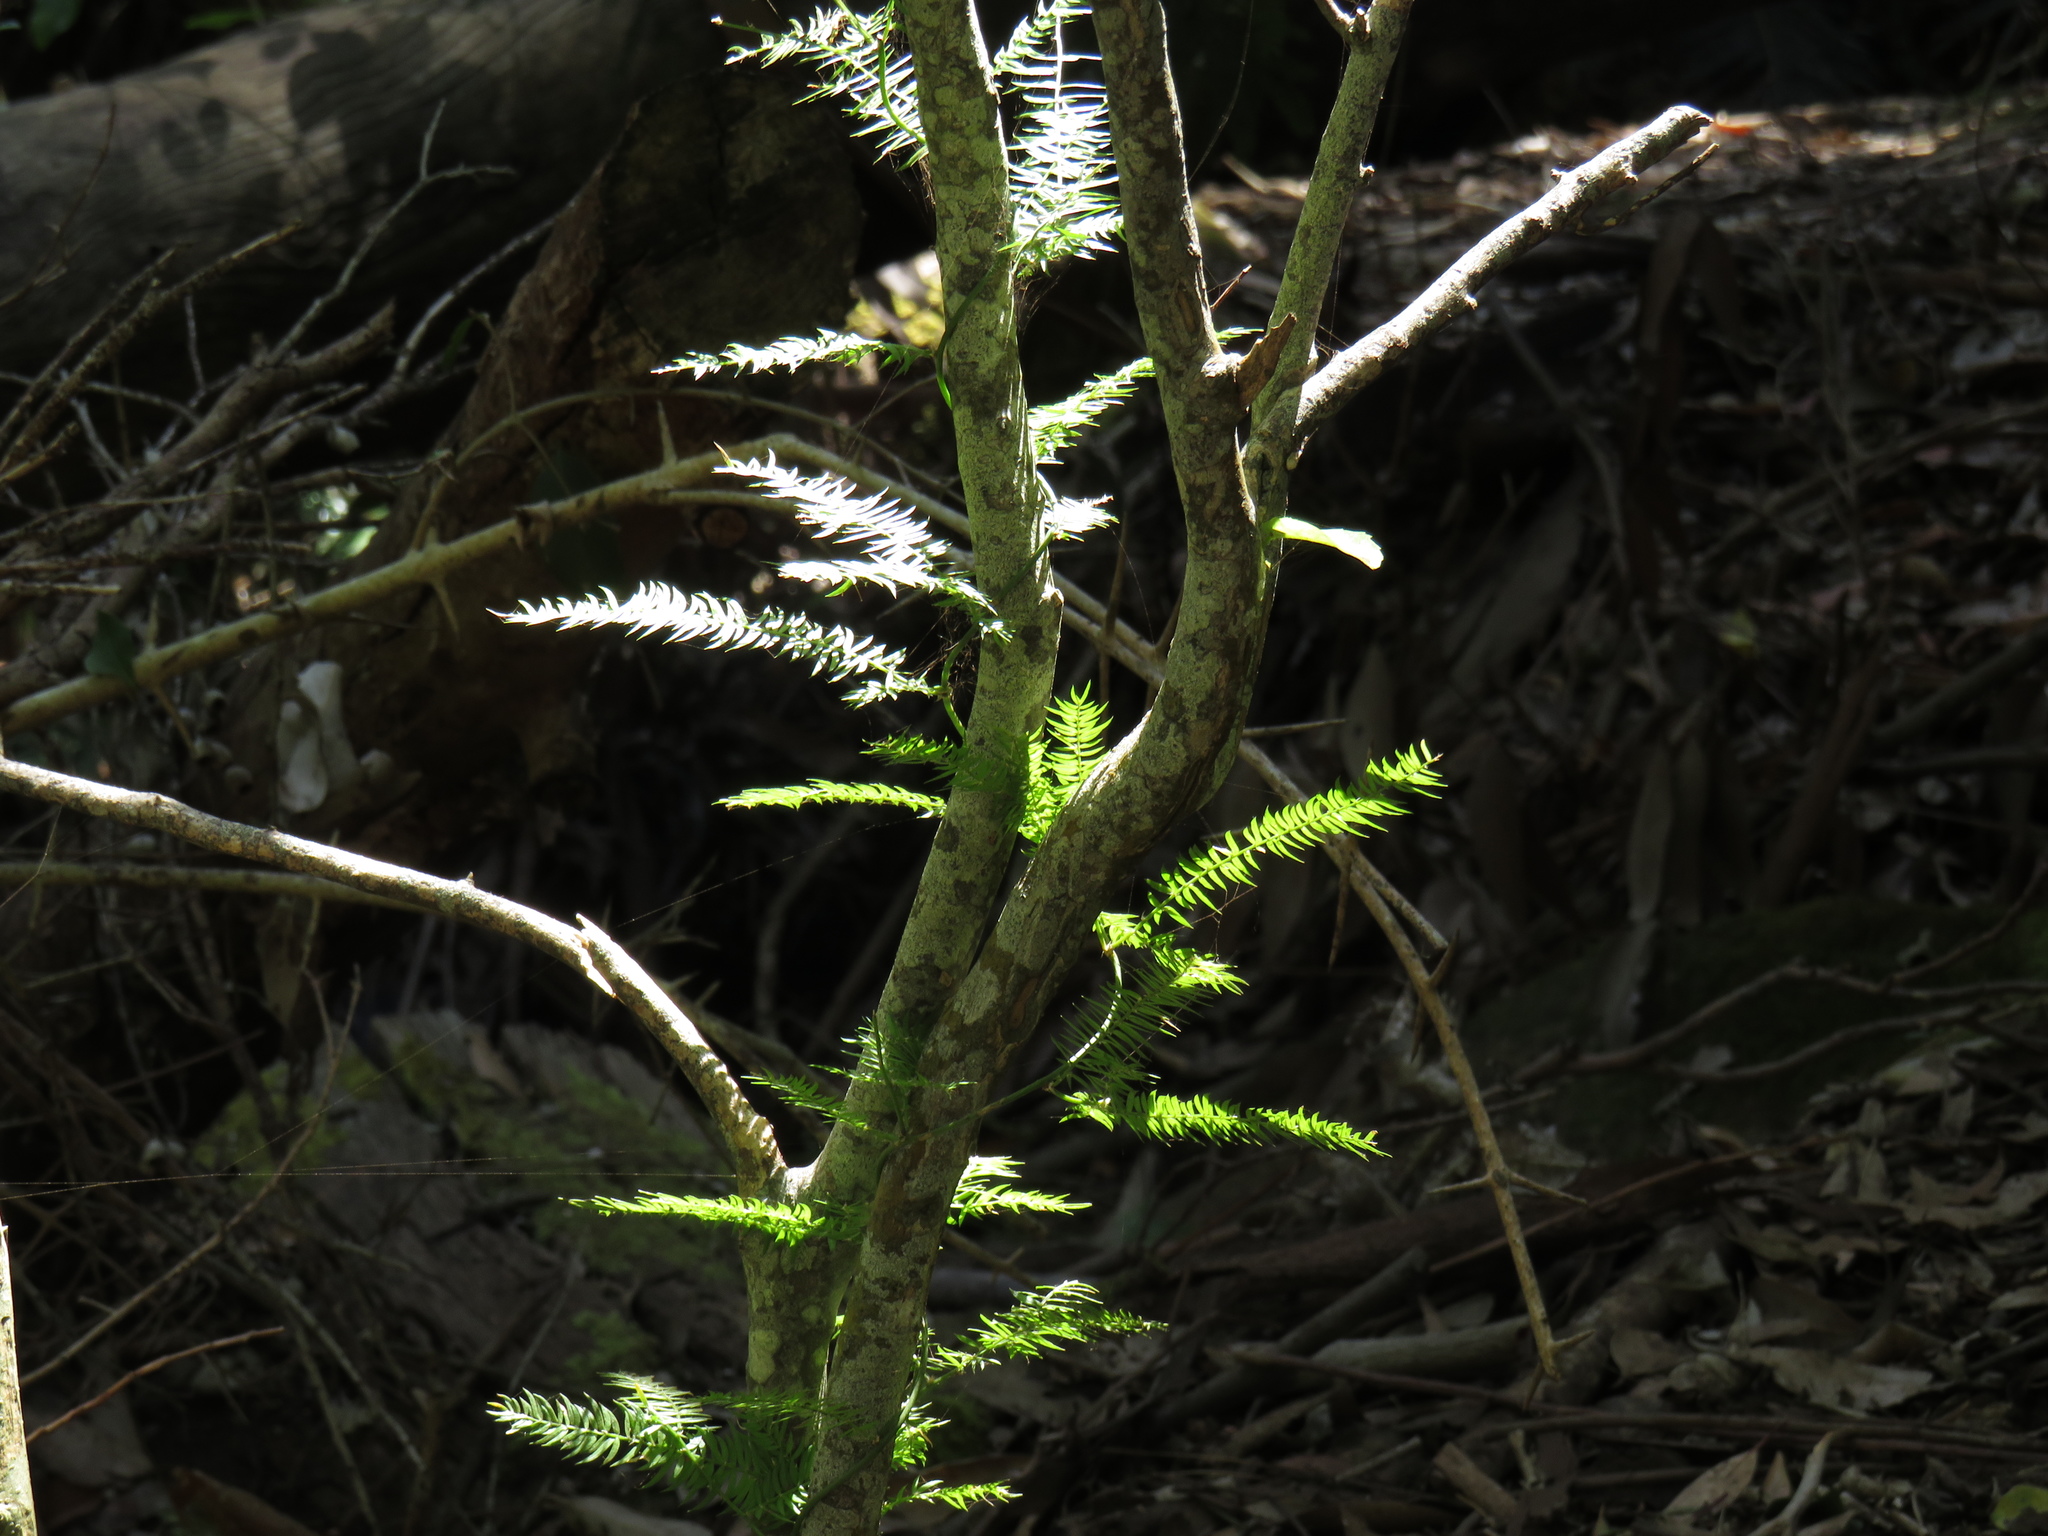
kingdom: Plantae
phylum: Tracheophyta
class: Liliopsida
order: Asparagales
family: Asparagaceae
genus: Asparagus
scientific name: Asparagus scandens
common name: Asparagus-fern
